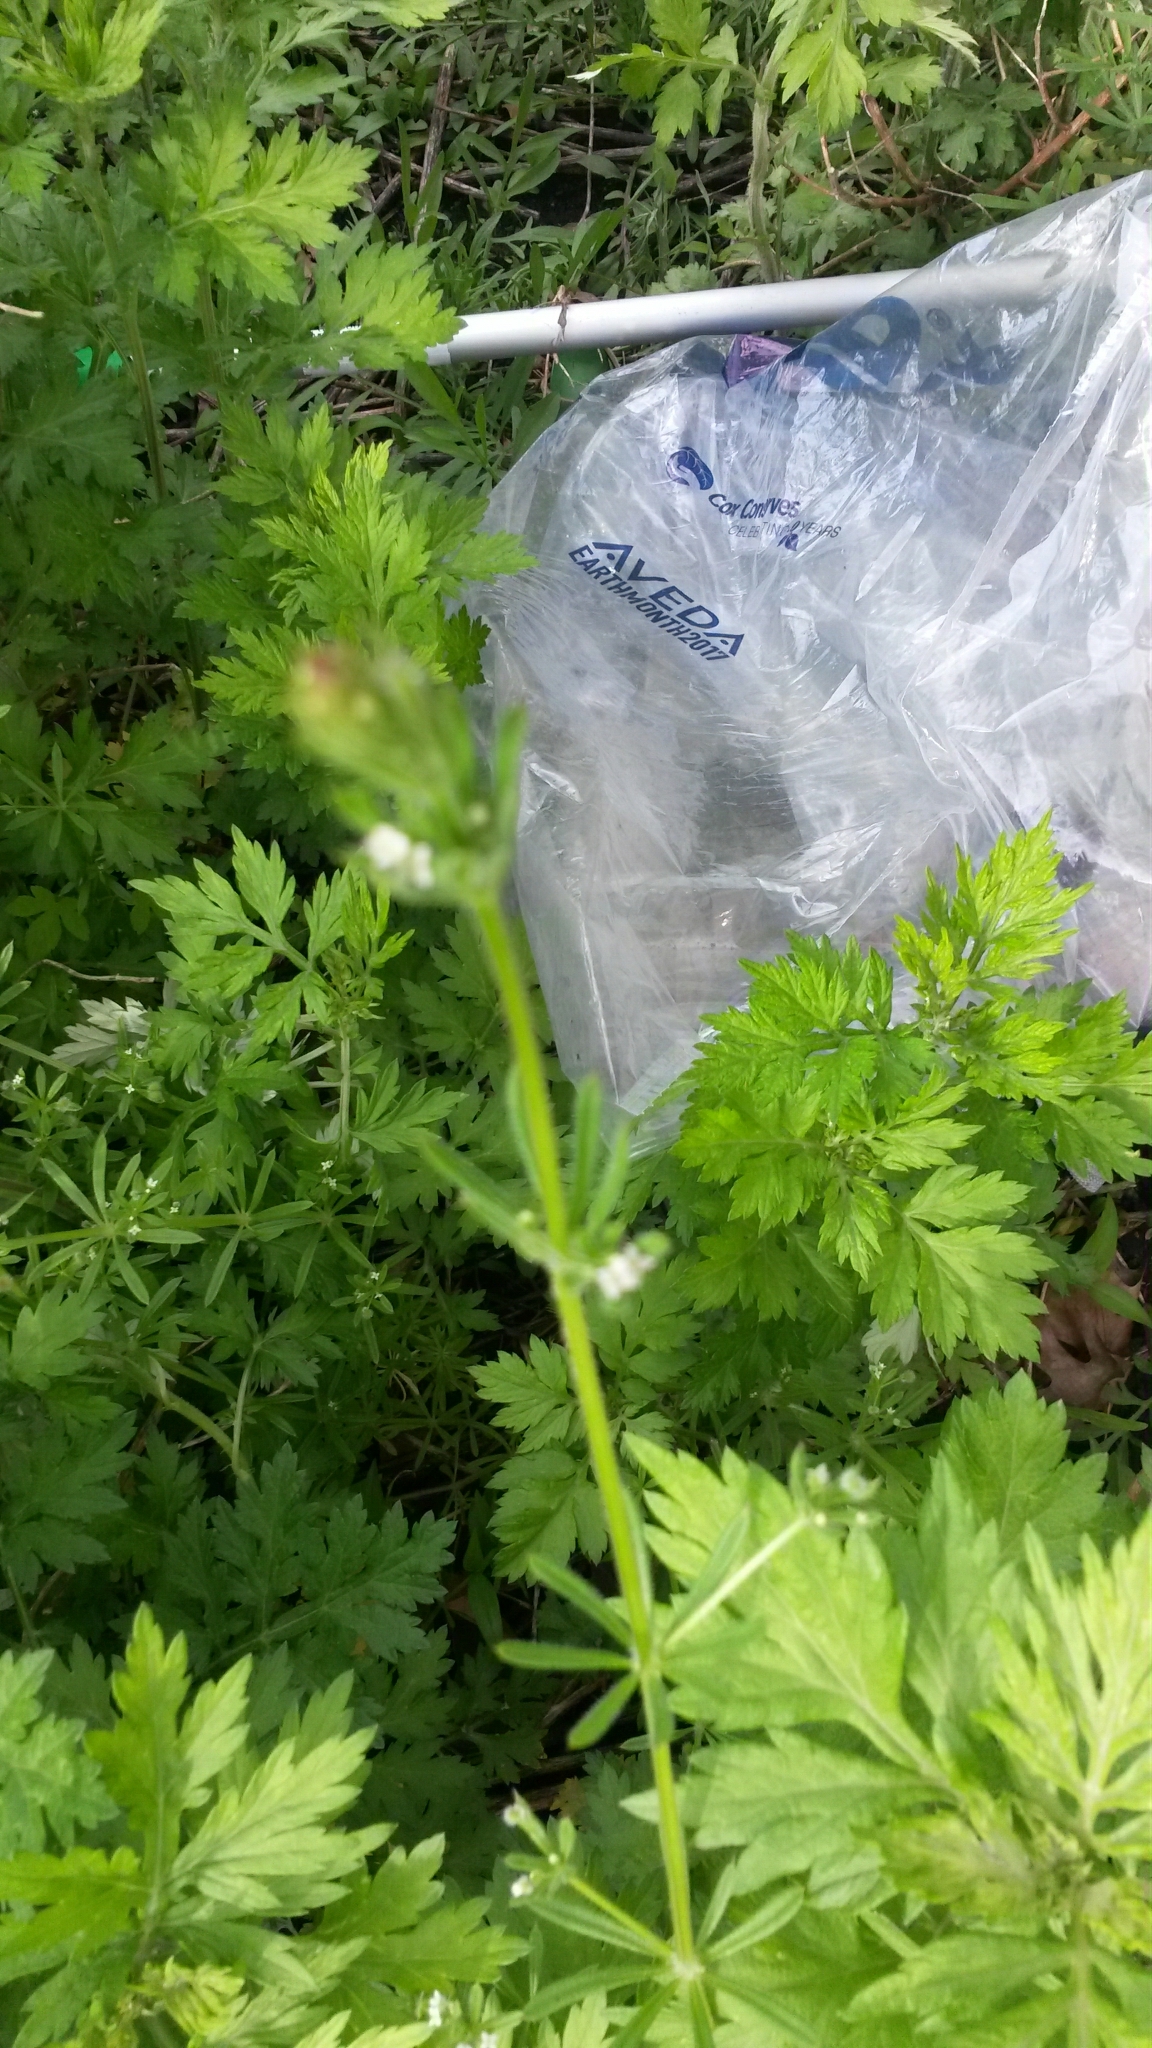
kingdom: Plantae
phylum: Tracheophyta
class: Magnoliopsida
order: Gentianales
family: Rubiaceae
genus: Galium
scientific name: Galium aparine
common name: Cleavers
